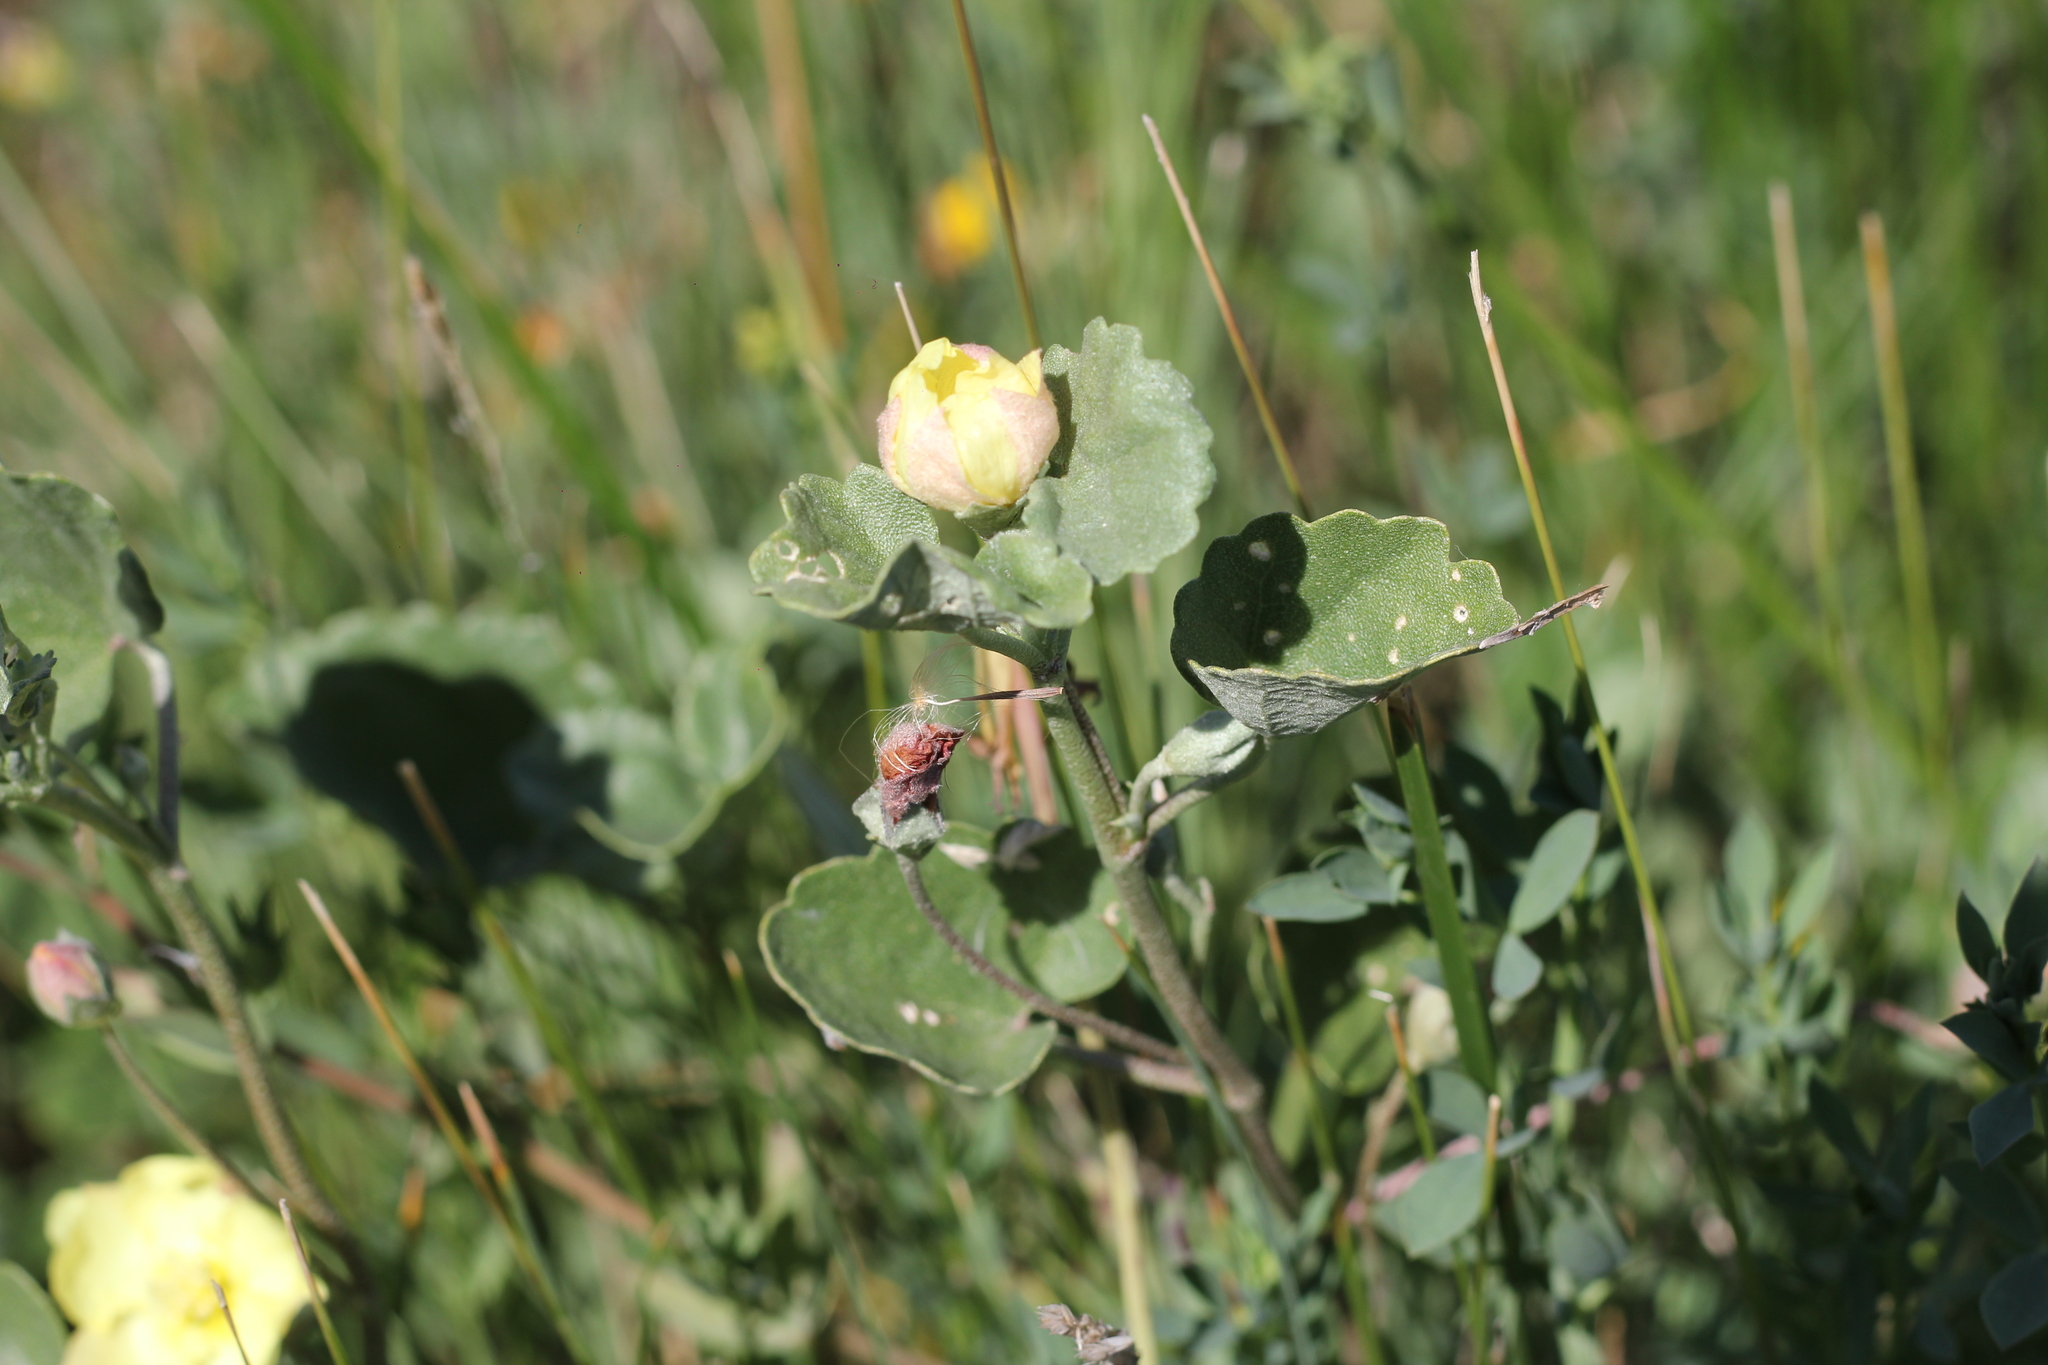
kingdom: Plantae
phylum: Tracheophyta
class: Magnoliopsida
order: Malvales
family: Malvaceae
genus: Malvella
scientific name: Malvella leprosa
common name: Alkali-mallow
